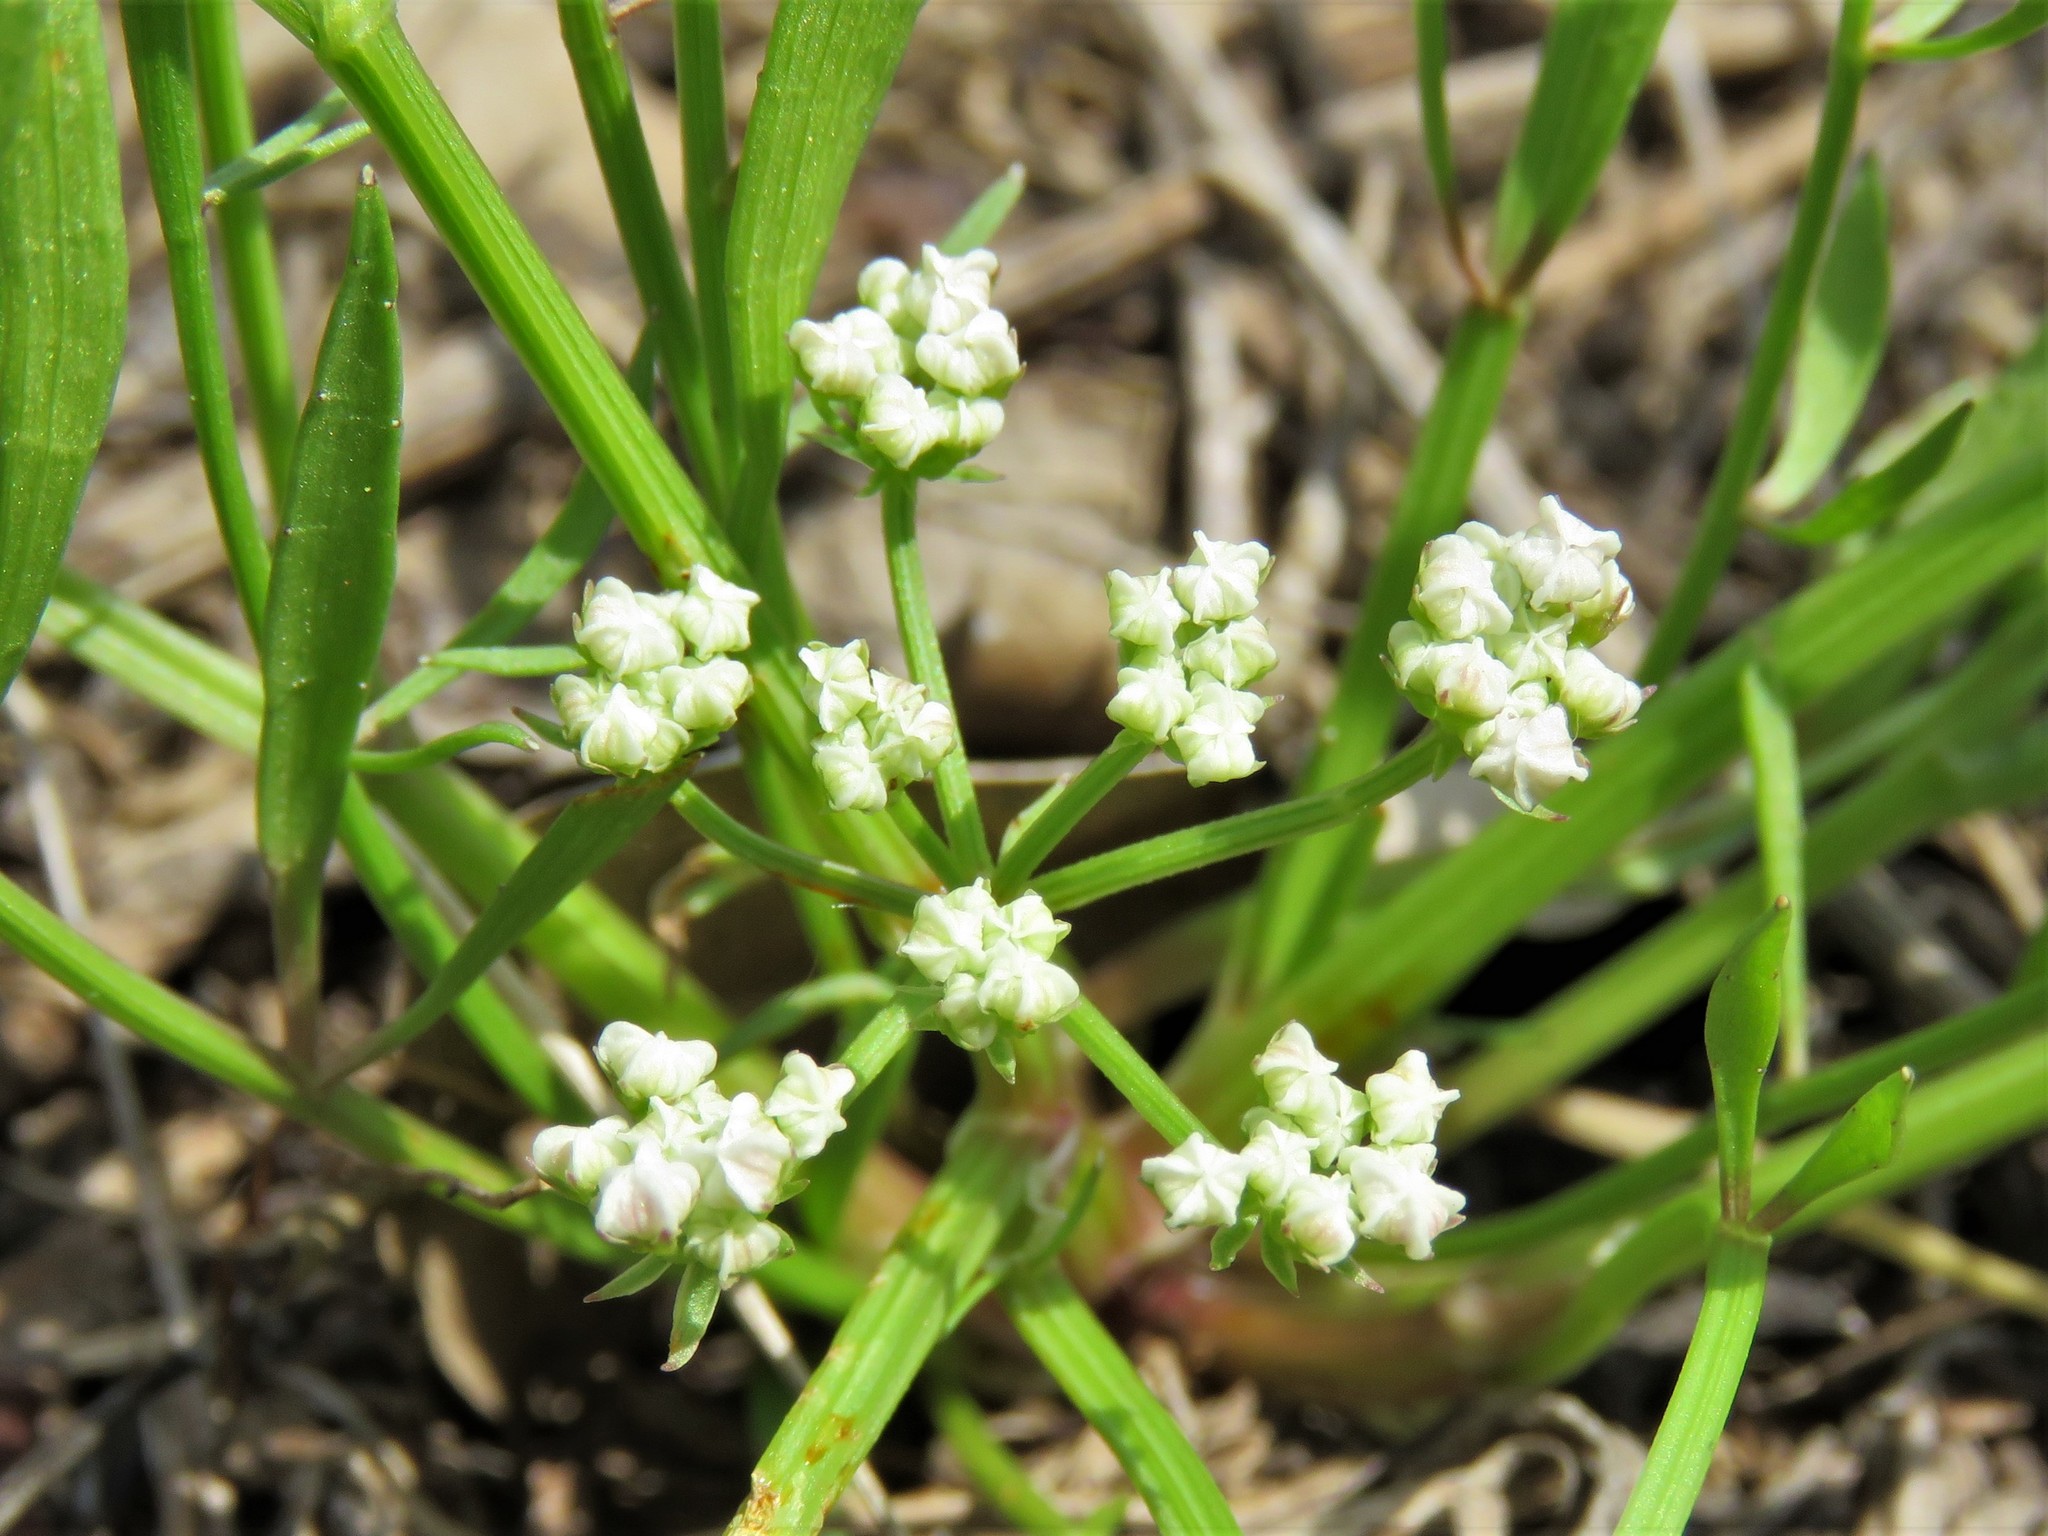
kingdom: Plantae
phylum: Tracheophyta
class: Magnoliopsida
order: Apiales
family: Apiaceae
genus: Limnosciadium
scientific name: Limnosciadium pinnatum
